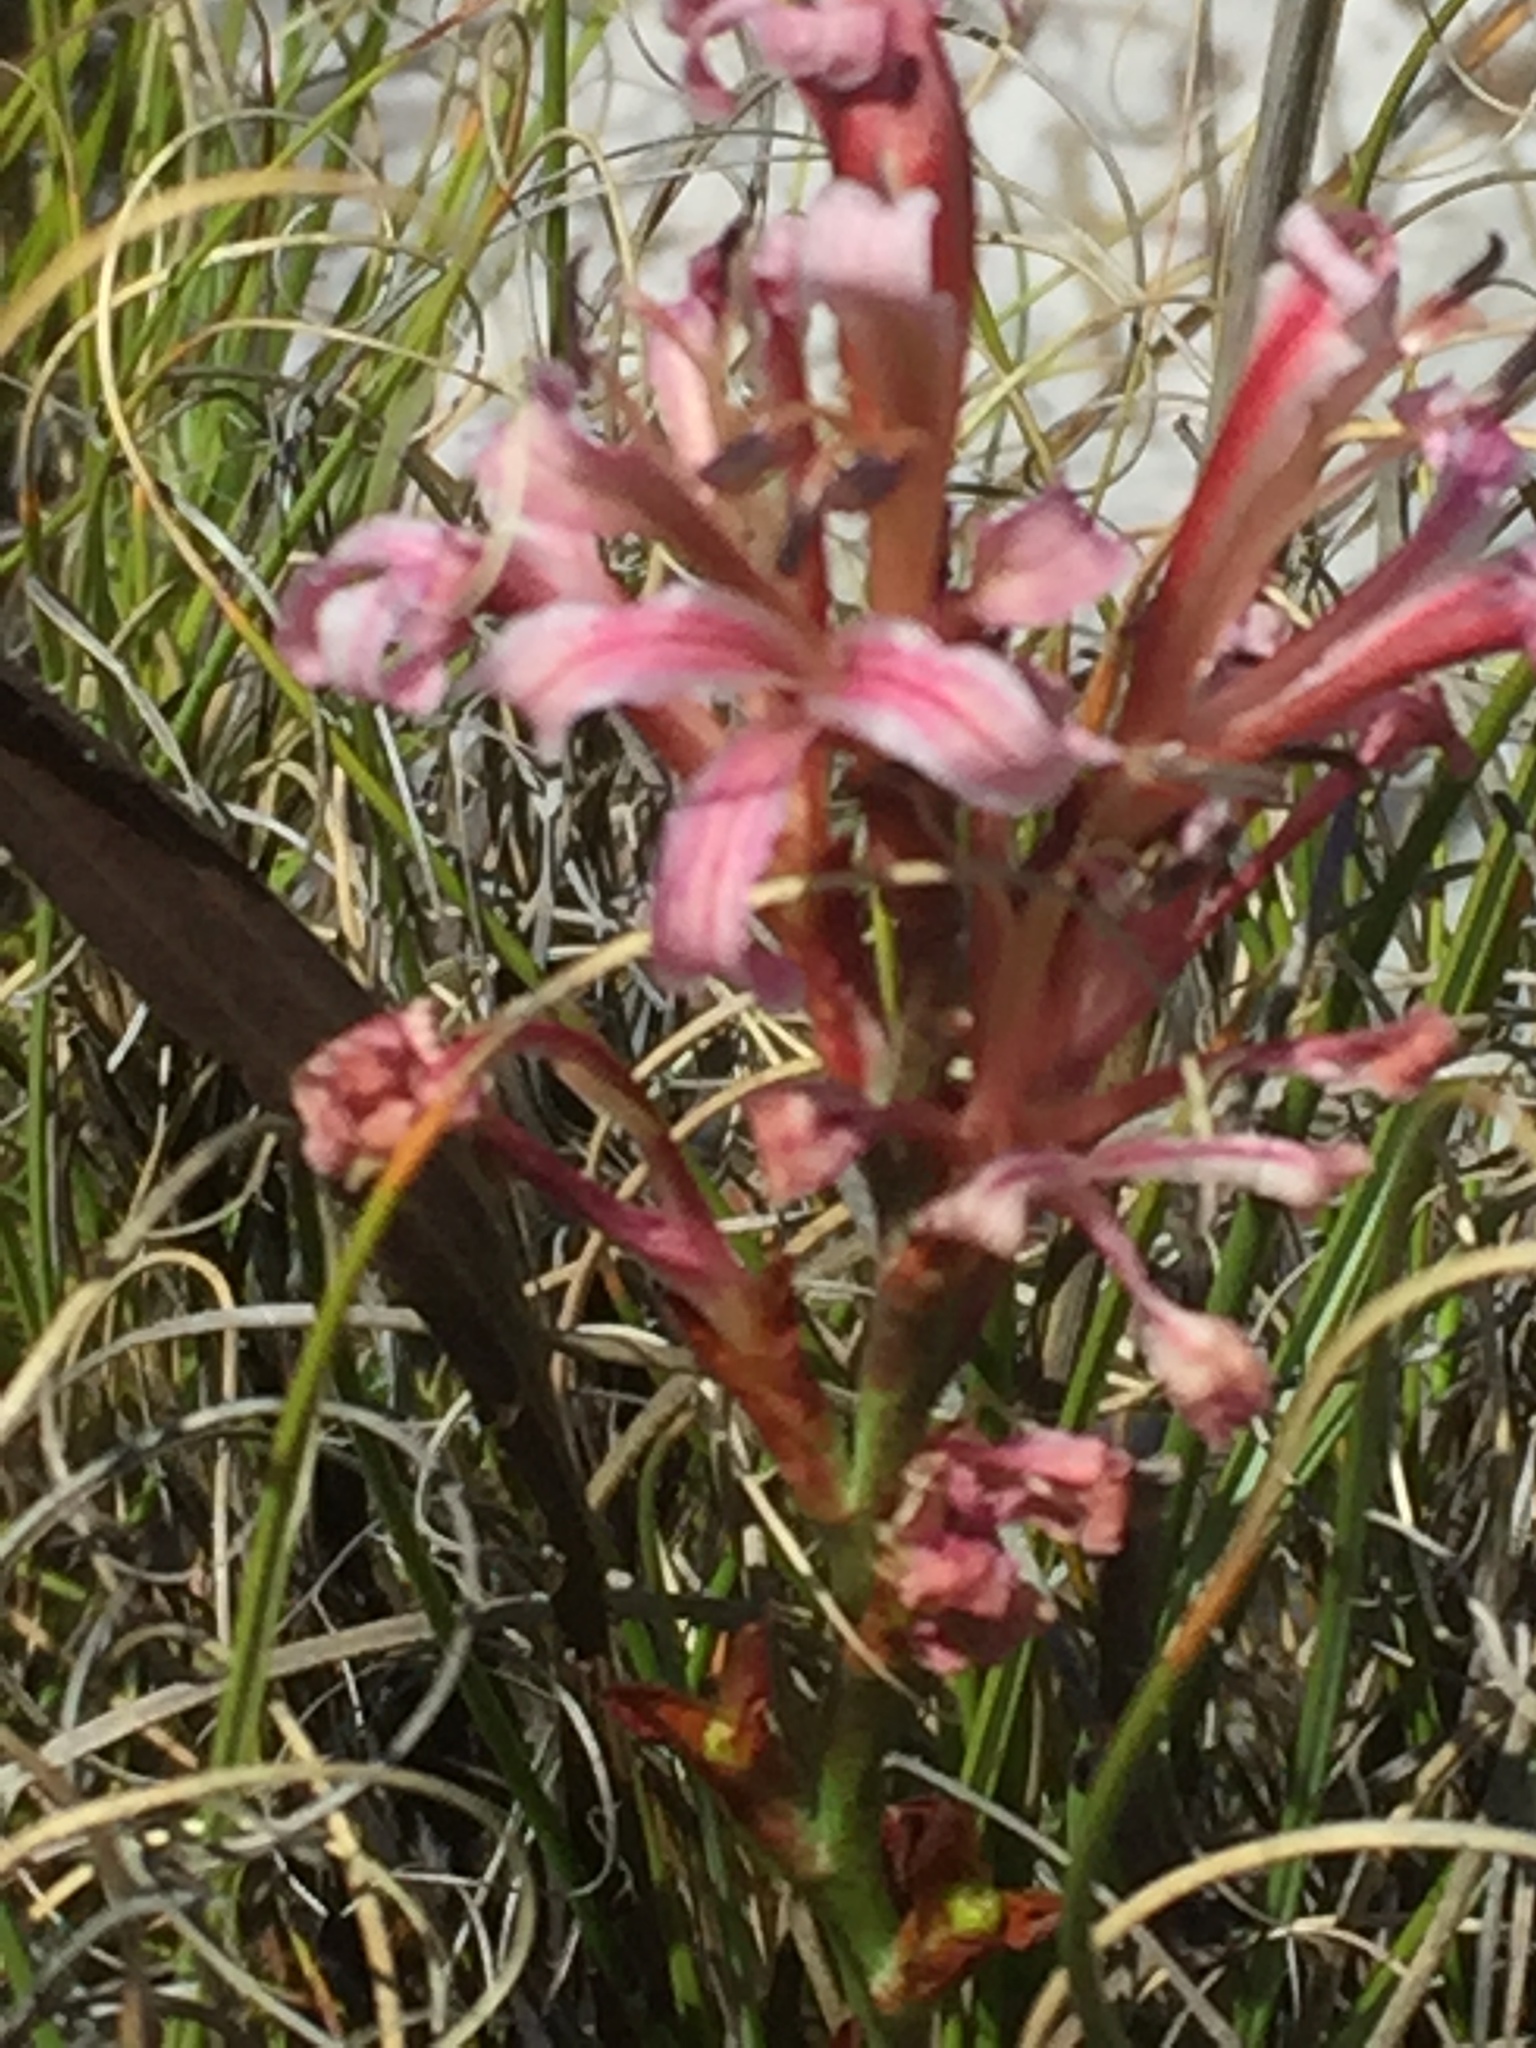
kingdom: Plantae
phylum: Tracheophyta
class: Liliopsida
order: Asparagales
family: Iridaceae
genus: Tritoniopsis
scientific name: Tritoniopsis dodii
